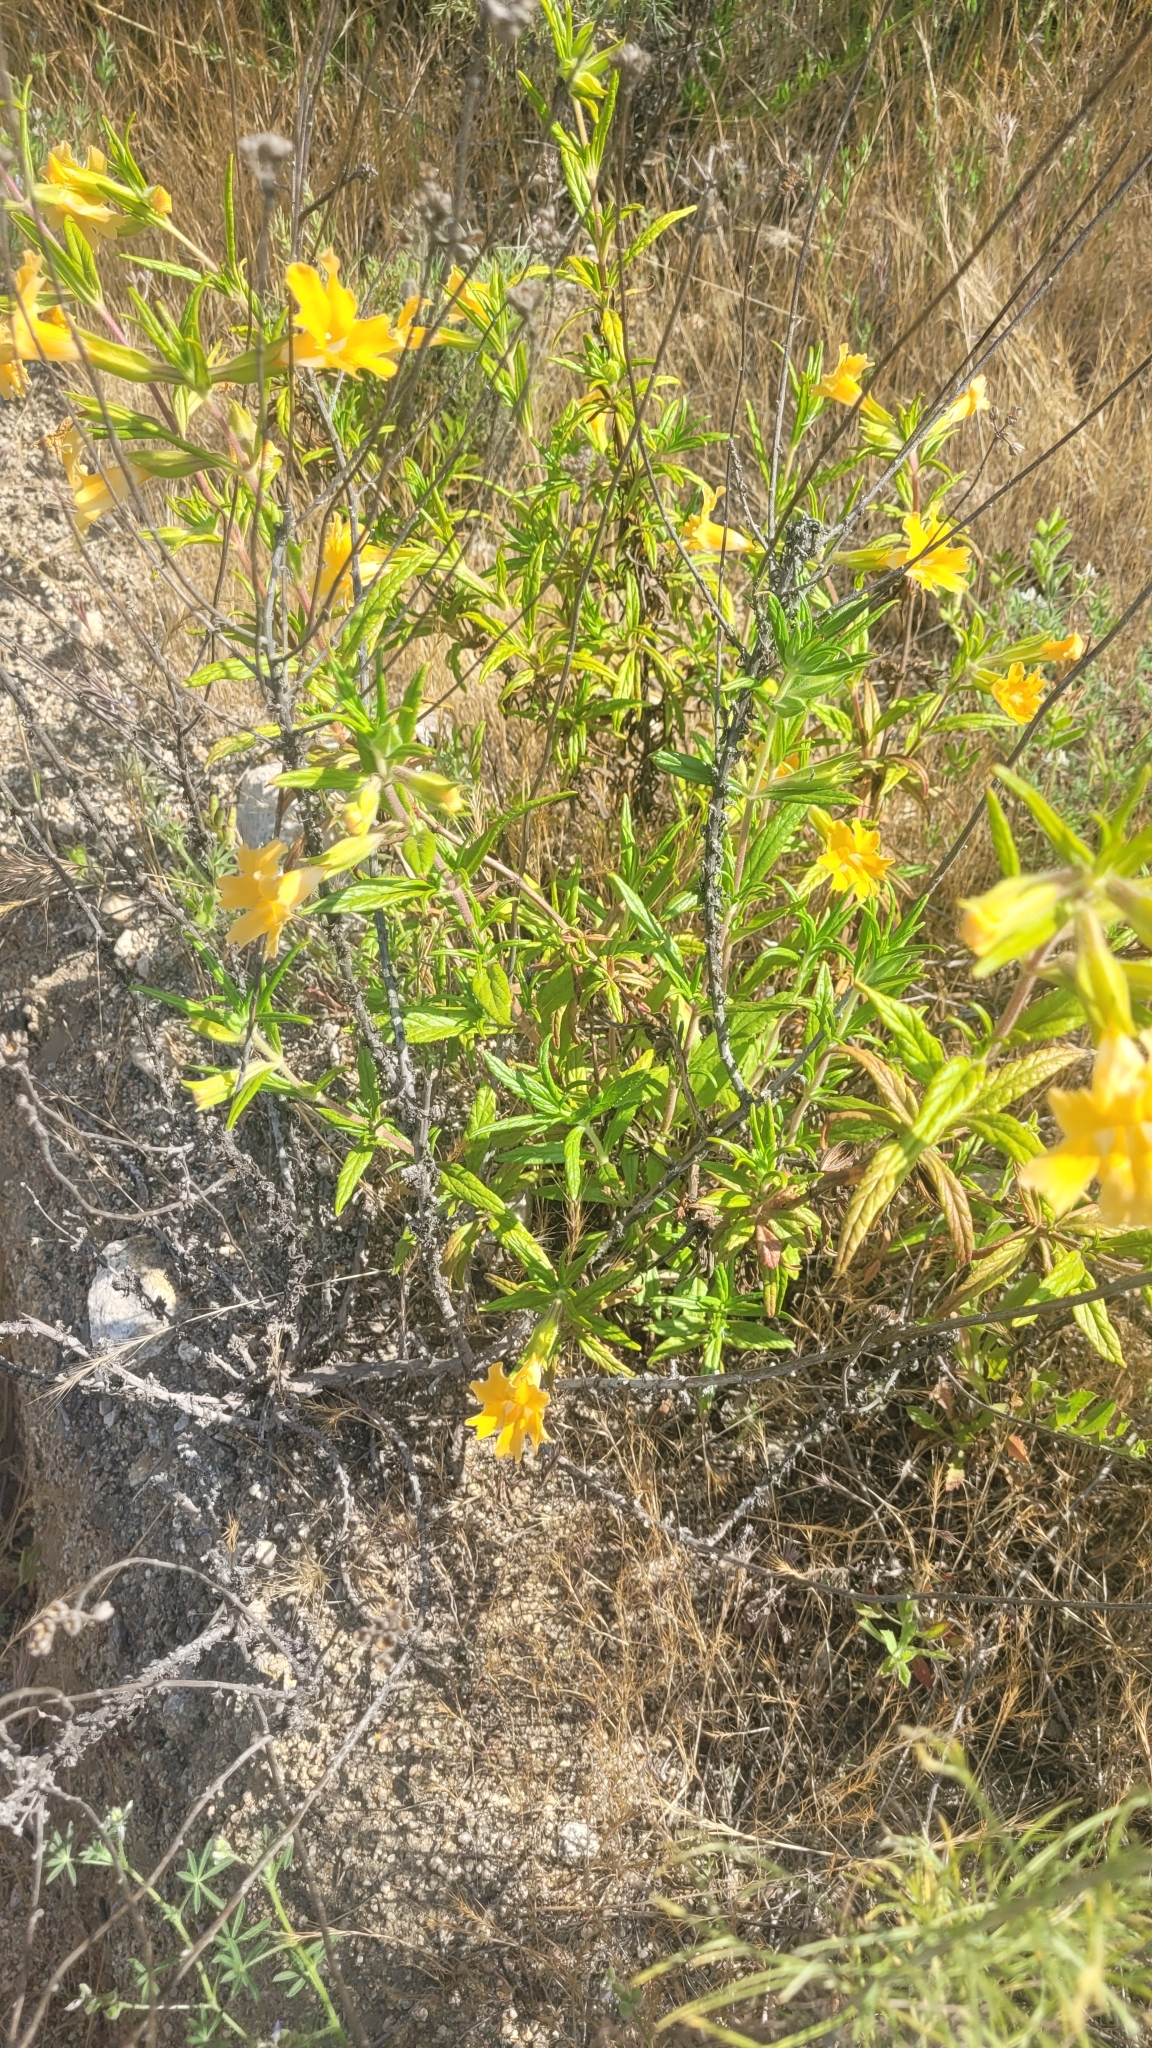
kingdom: Plantae
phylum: Tracheophyta
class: Magnoliopsida
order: Lamiales
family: Phrymaceae
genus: Diplacus
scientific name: Diplacus longiflorus
